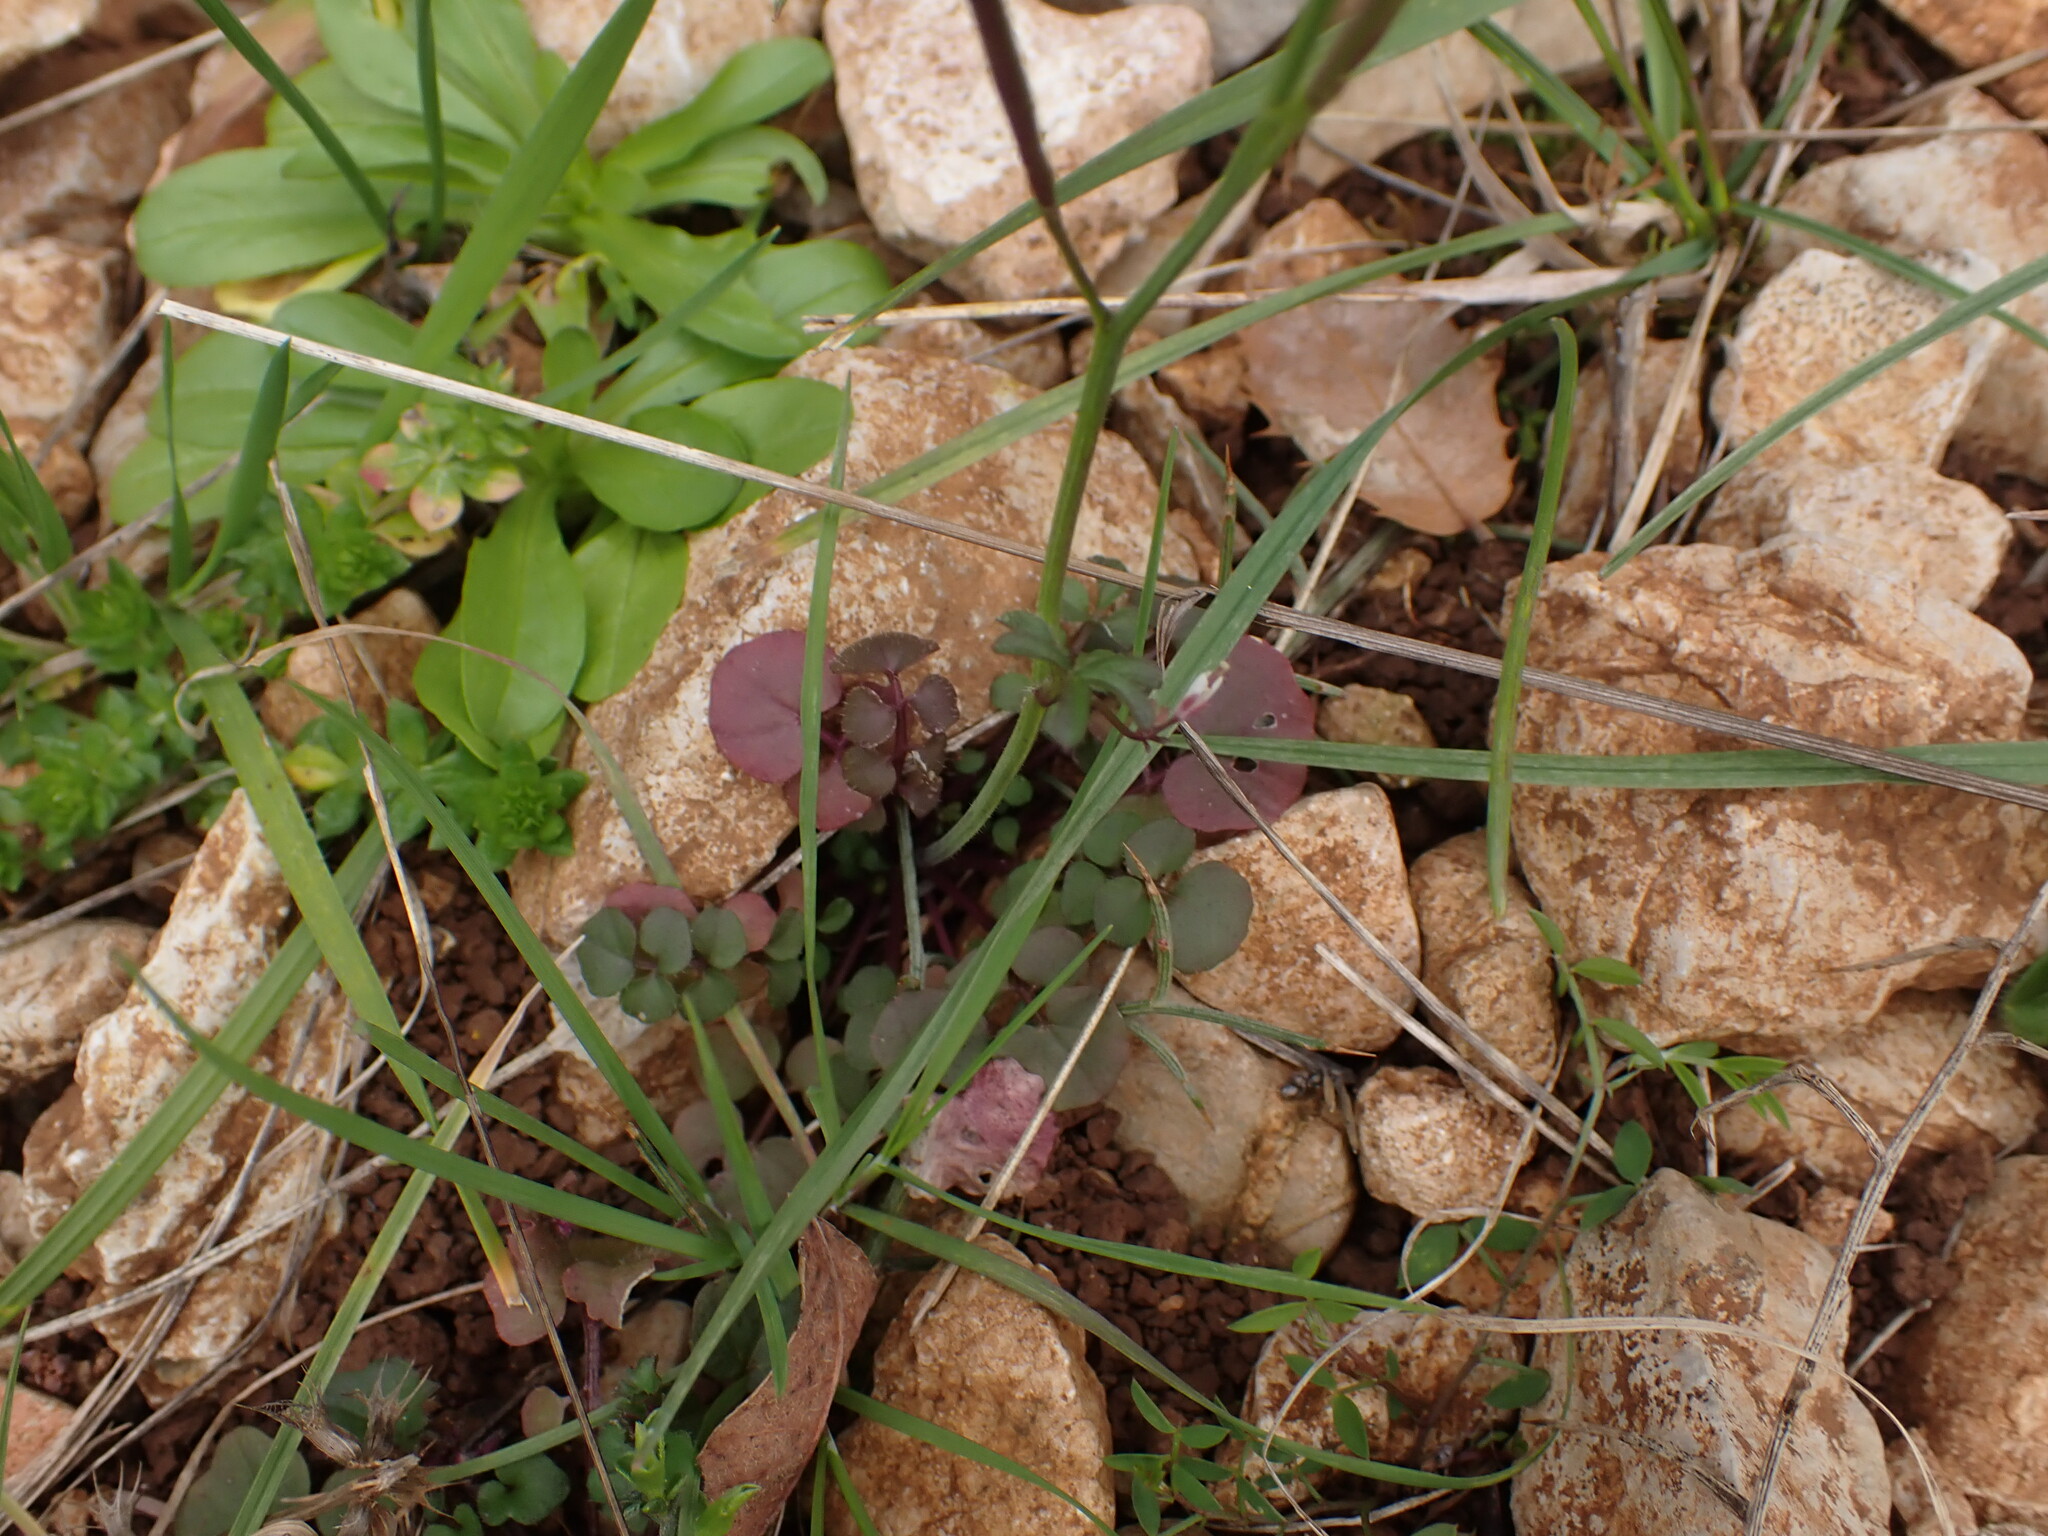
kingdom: Plantae
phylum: Tracheophyta
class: Magnoliopsida
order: Brassicales
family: Brassicaceae
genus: Cardamine
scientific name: Cardamine hirsuta
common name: Hairy bittercress
